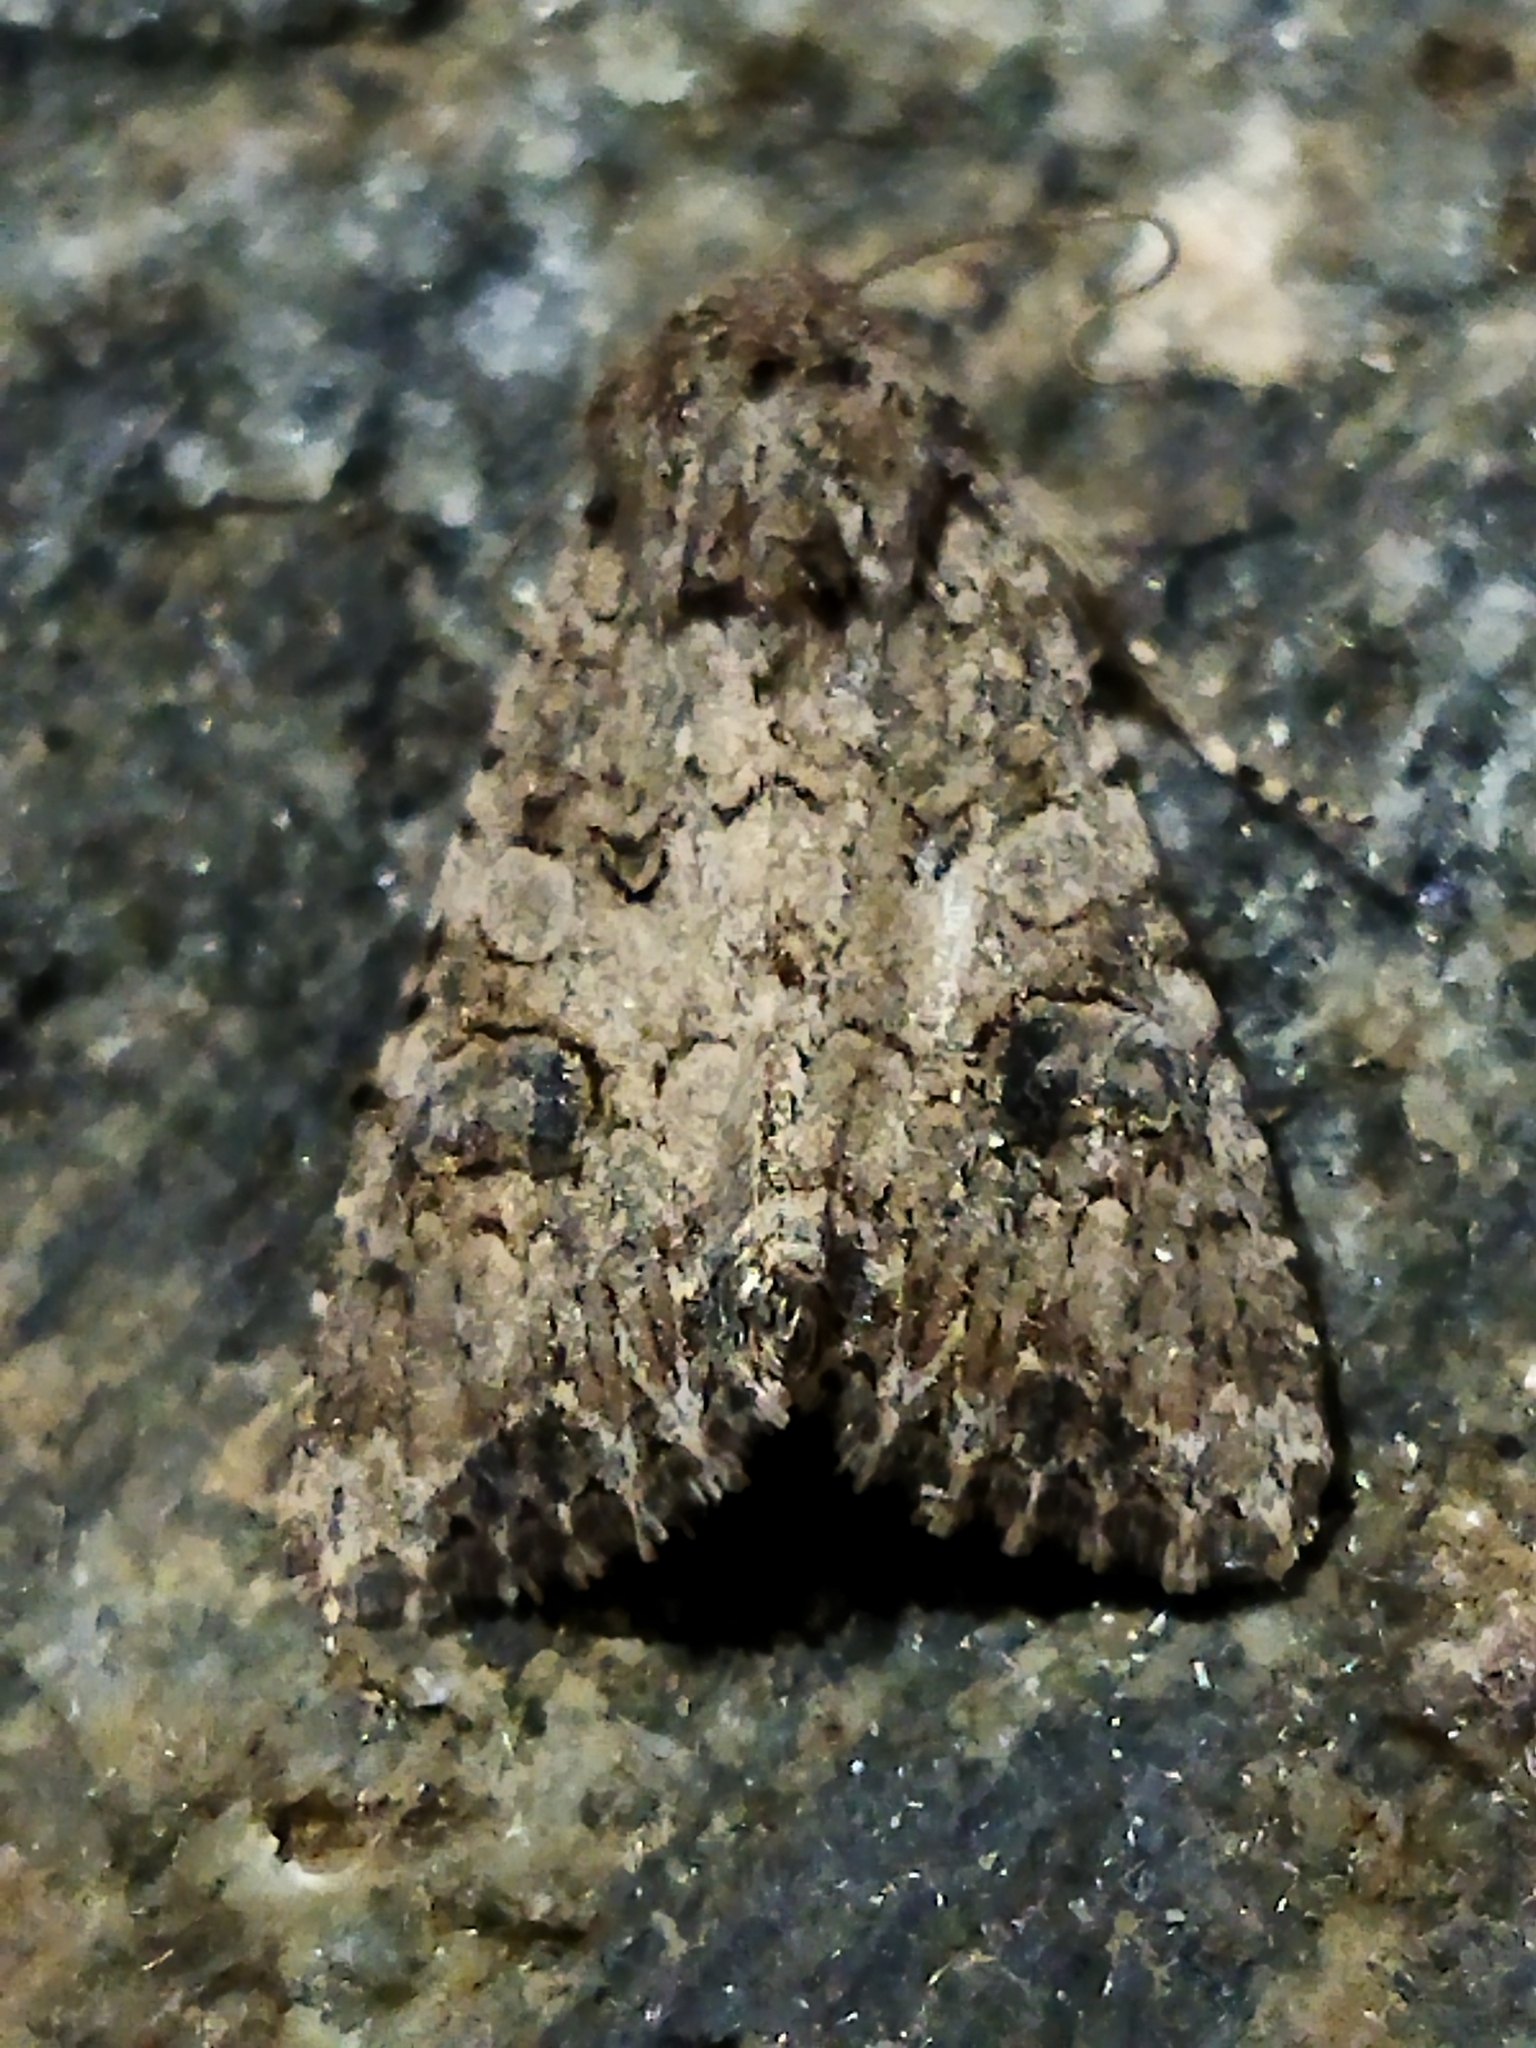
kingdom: Animalia
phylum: Arthropoda
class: Insecta
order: Lepidoptera
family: Noctuidae
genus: Anarta
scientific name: Anarta trifolii
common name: Clover cutworm moth
